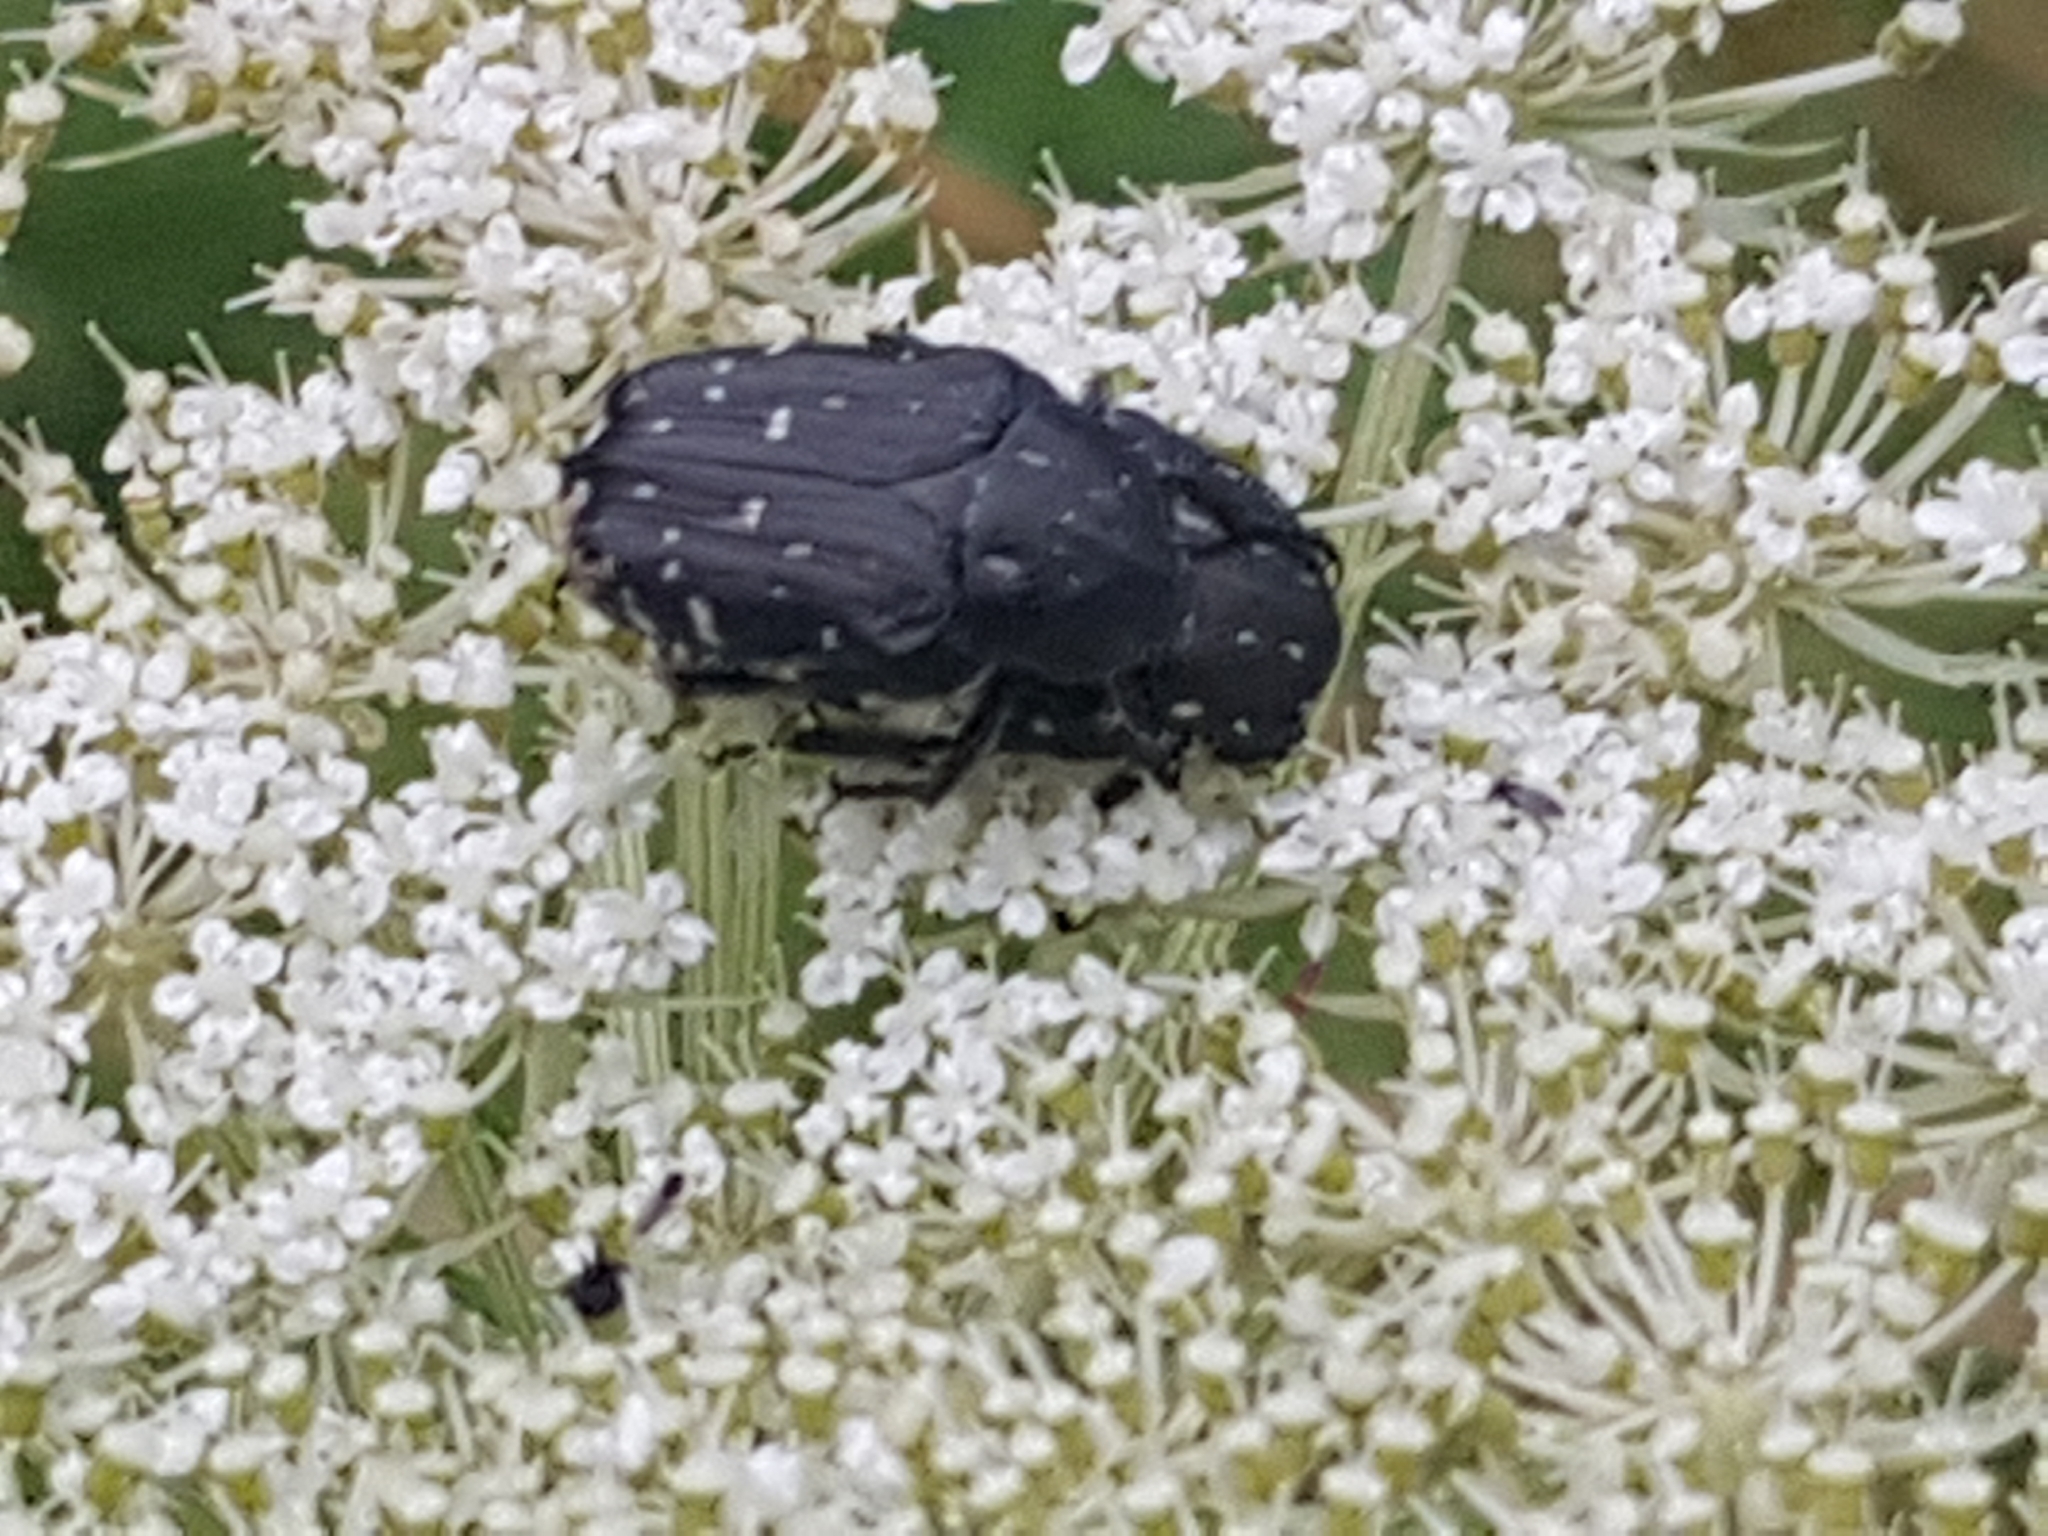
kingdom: Animalia
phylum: Arthropoda
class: Insecta
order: Coleoptera
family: Scarabaeidae
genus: Oxythyrea
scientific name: Oxythyrea funesta
